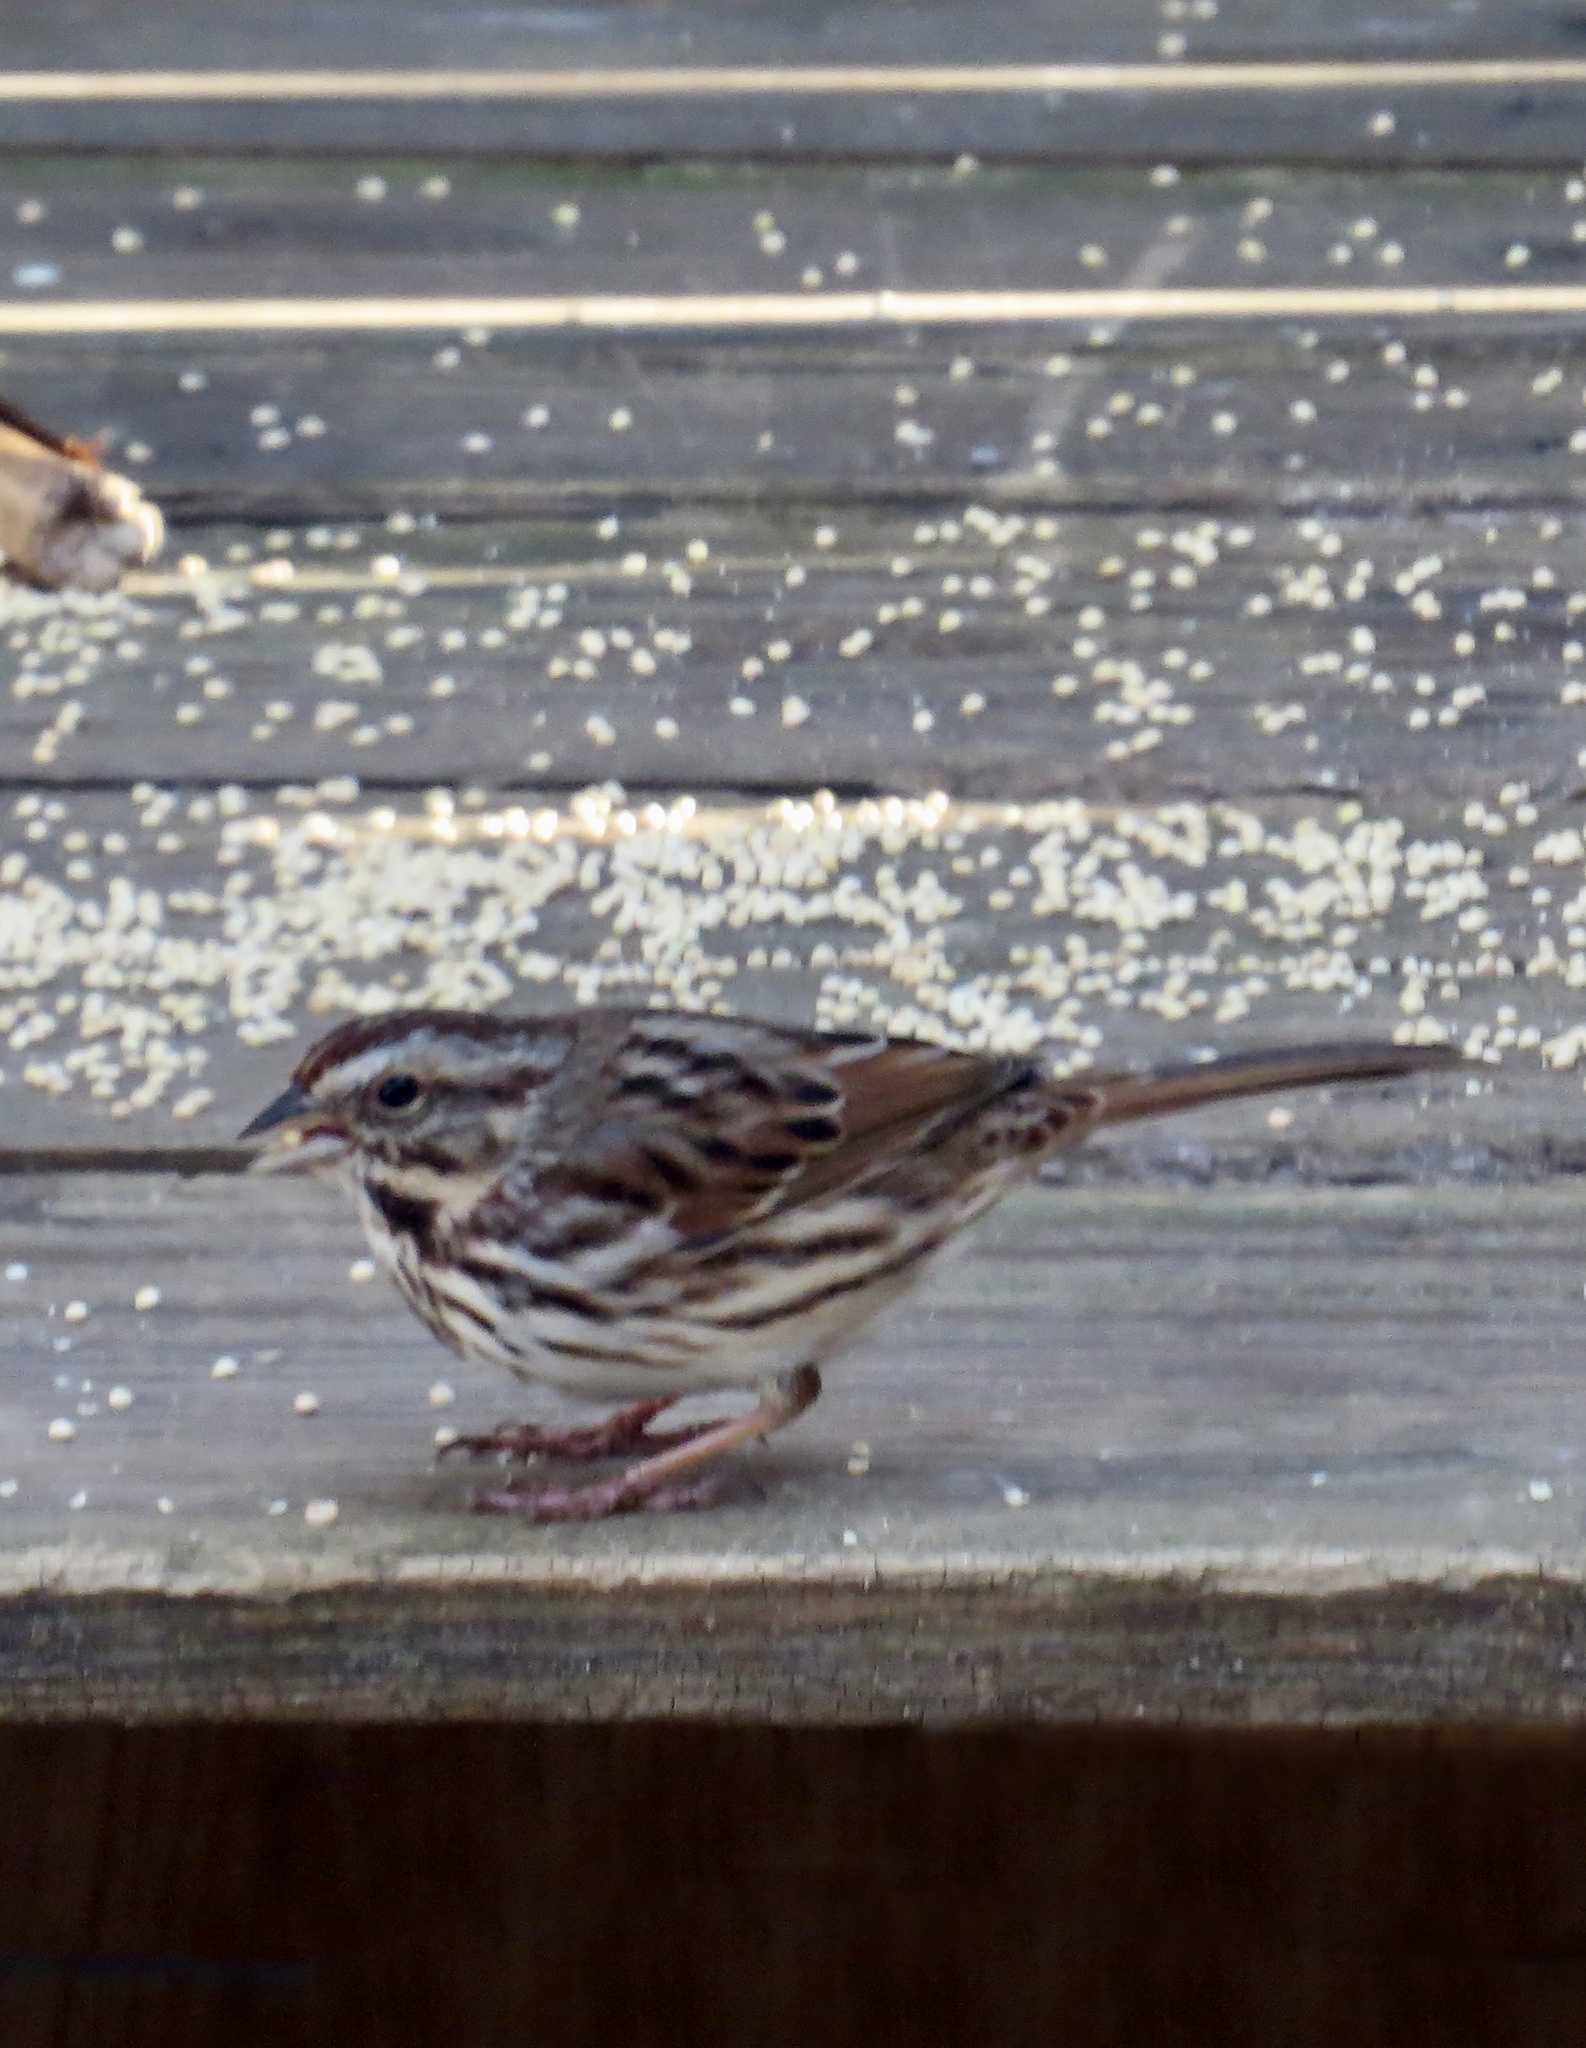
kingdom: Animalia
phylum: Chordata
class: Aves
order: Passeriformes
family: Passerellidae
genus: Melospiza
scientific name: Melospiza melodia
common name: Song sparrow
